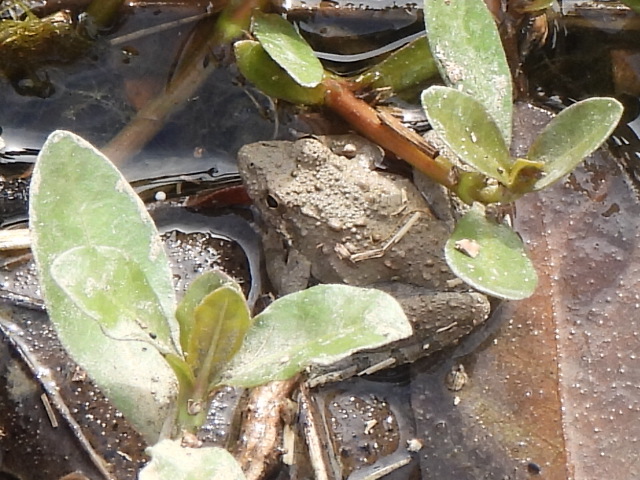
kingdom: Animalia
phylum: Chordata
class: Amphibia
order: Anura
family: Hylidae
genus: Acris
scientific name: Acris blanchardi
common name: Blanchard's cricket frog
